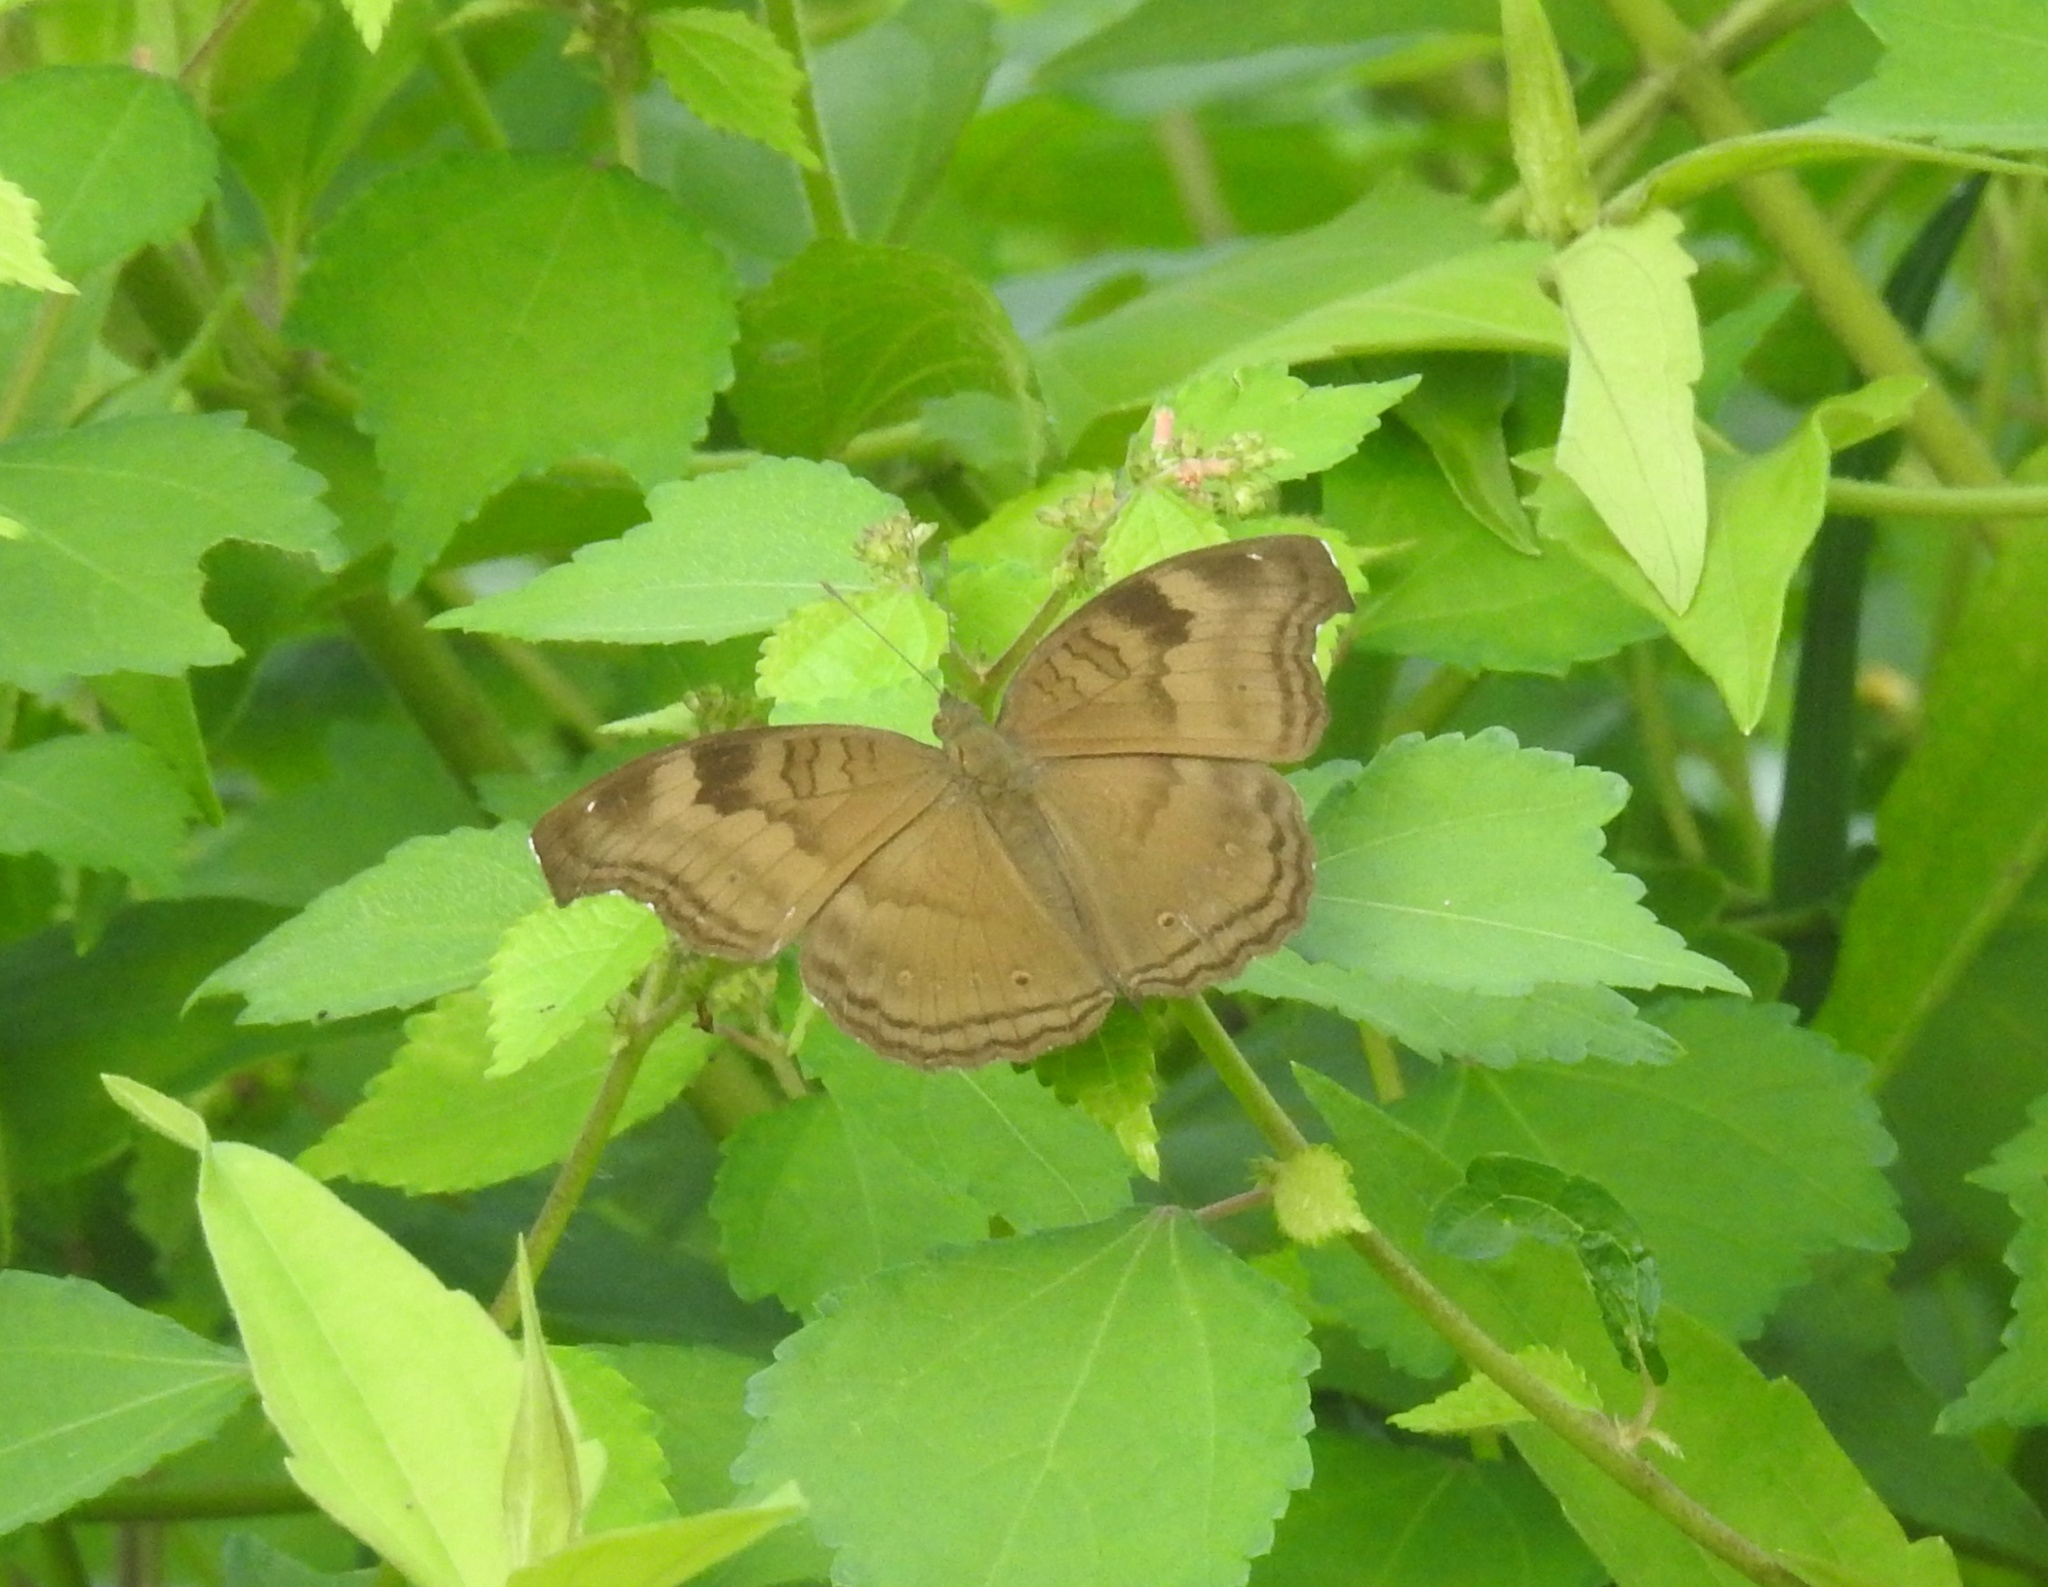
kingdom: Animalia
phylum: Arthropoda
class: Insecta
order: Lepidoptera
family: Nymphalidae
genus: Junonia
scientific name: Junonia iphita
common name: Chocolate pansy
